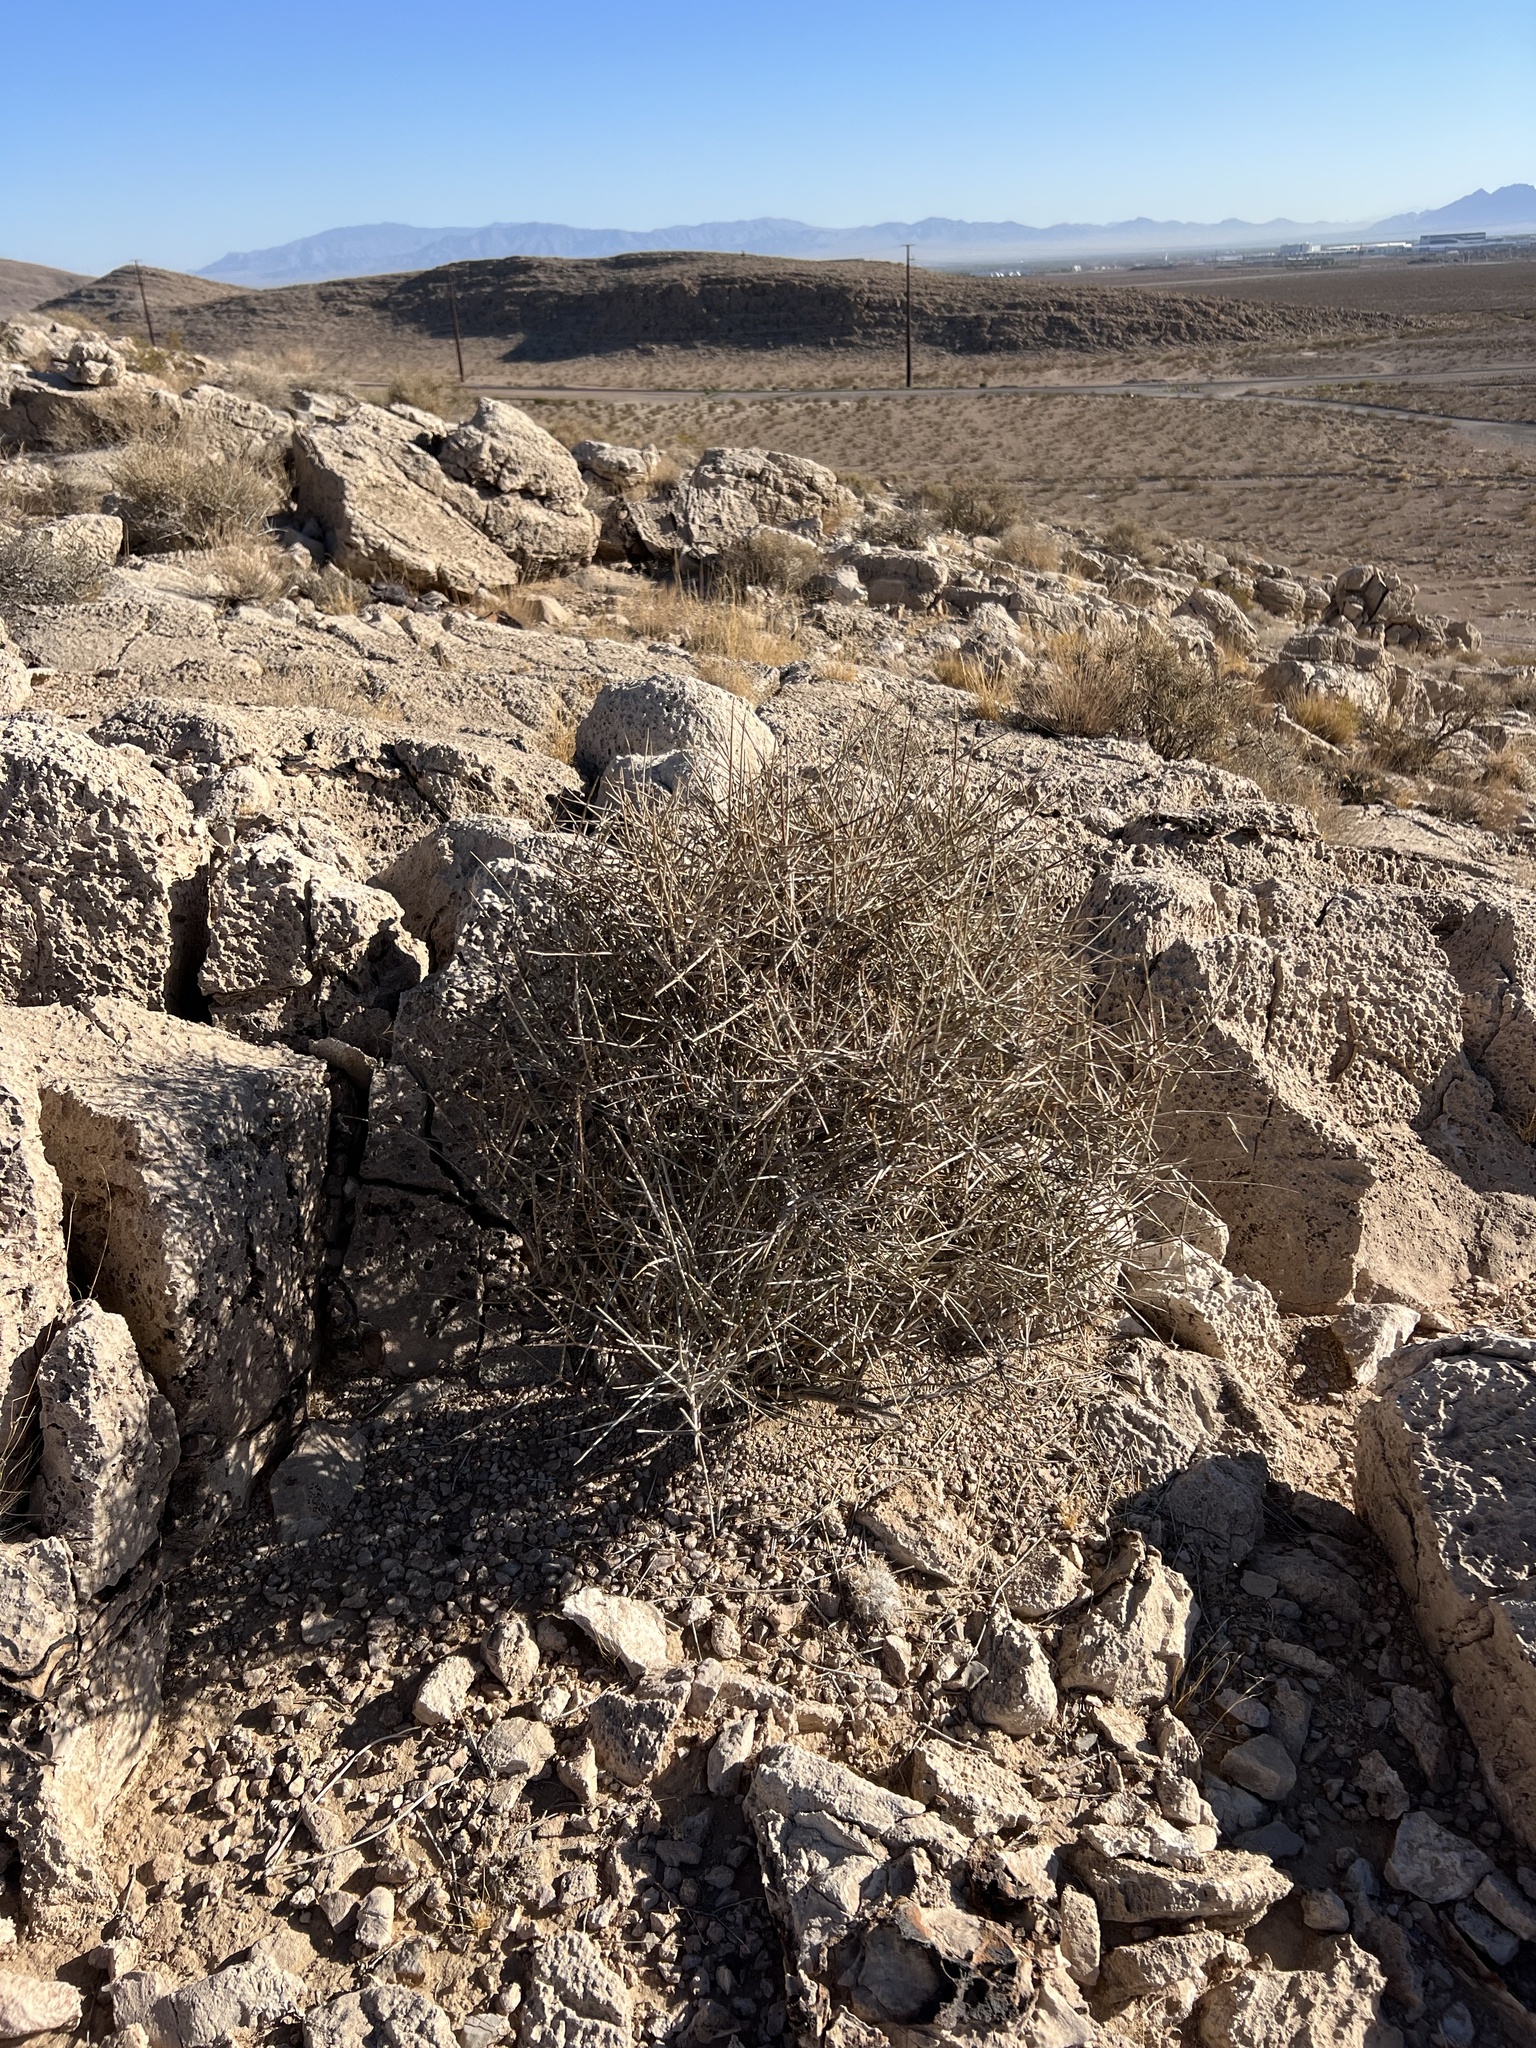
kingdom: Plantae
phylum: Tracheophyta
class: Gnetopsida
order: Ephedrales
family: Ephedraceae
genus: Ephedra
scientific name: Ephedra nevadensis
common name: Gray ephedra
